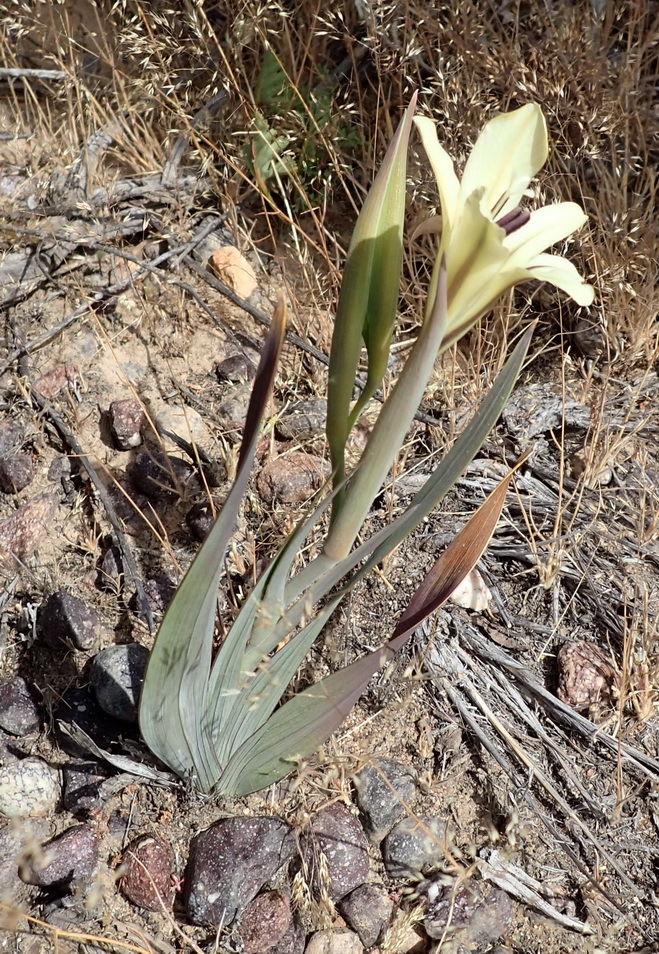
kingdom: Plantae
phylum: Tracheophyta
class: Liliopsida
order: Asparagales
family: Iridaceae
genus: Gladiolus
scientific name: Gladiolus floribundus
